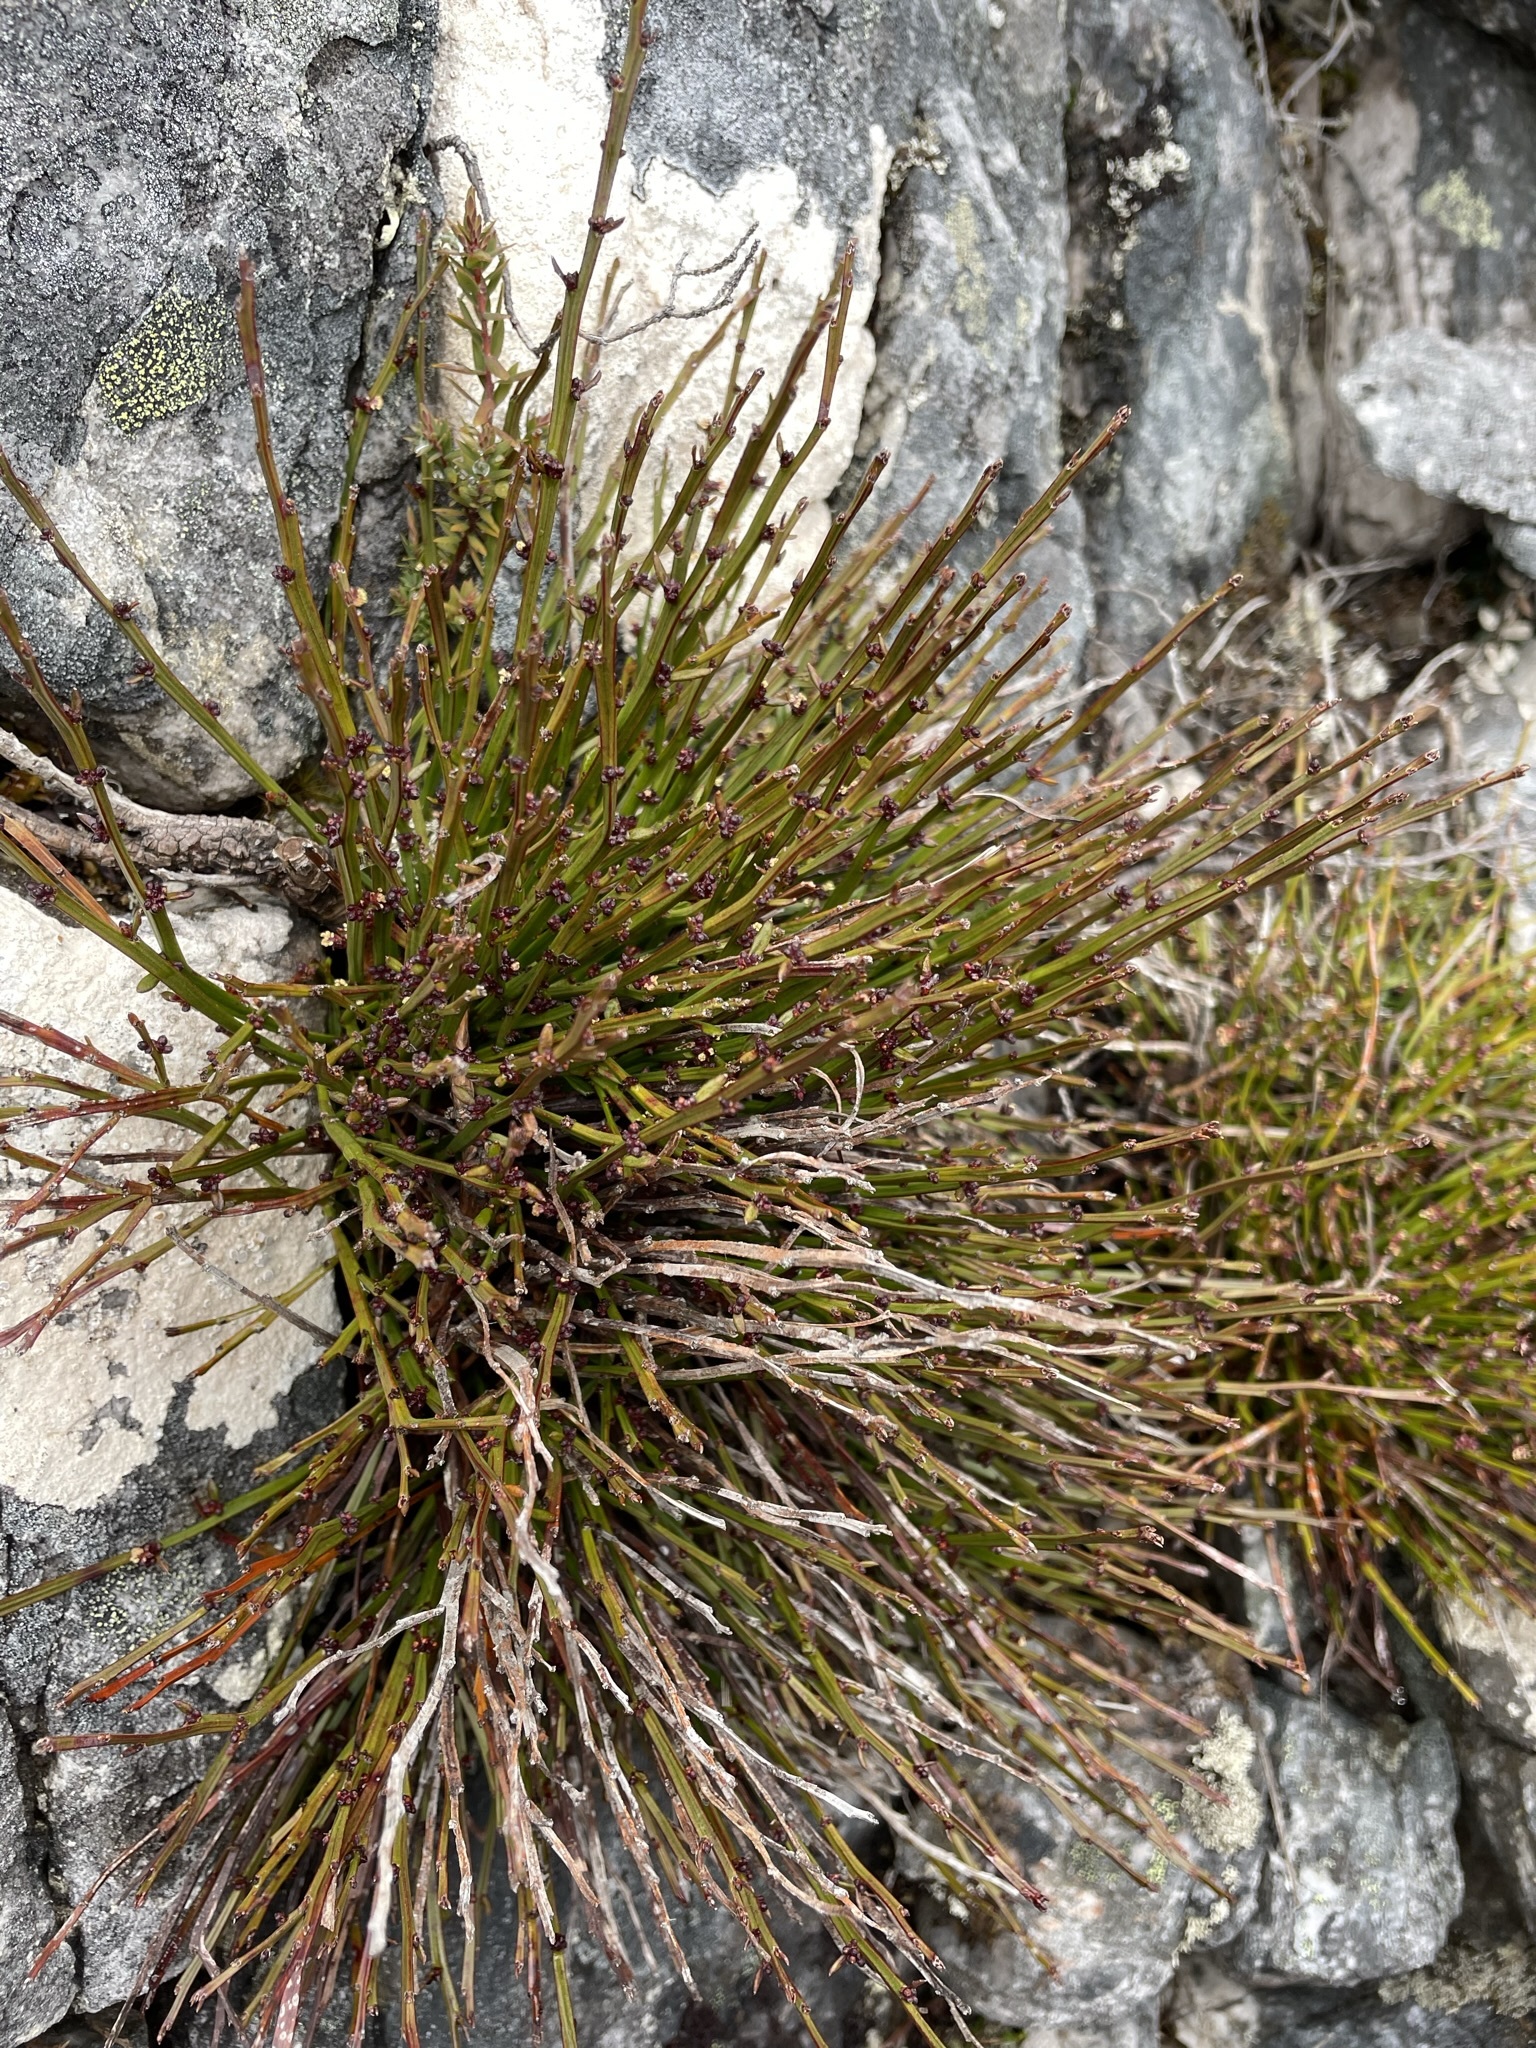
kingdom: Plantae
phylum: Tracheophyta
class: Magnoliopsida
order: Malpighiales
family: Euphorbiaceae
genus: Amperea
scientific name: Amperea xiphoclada
